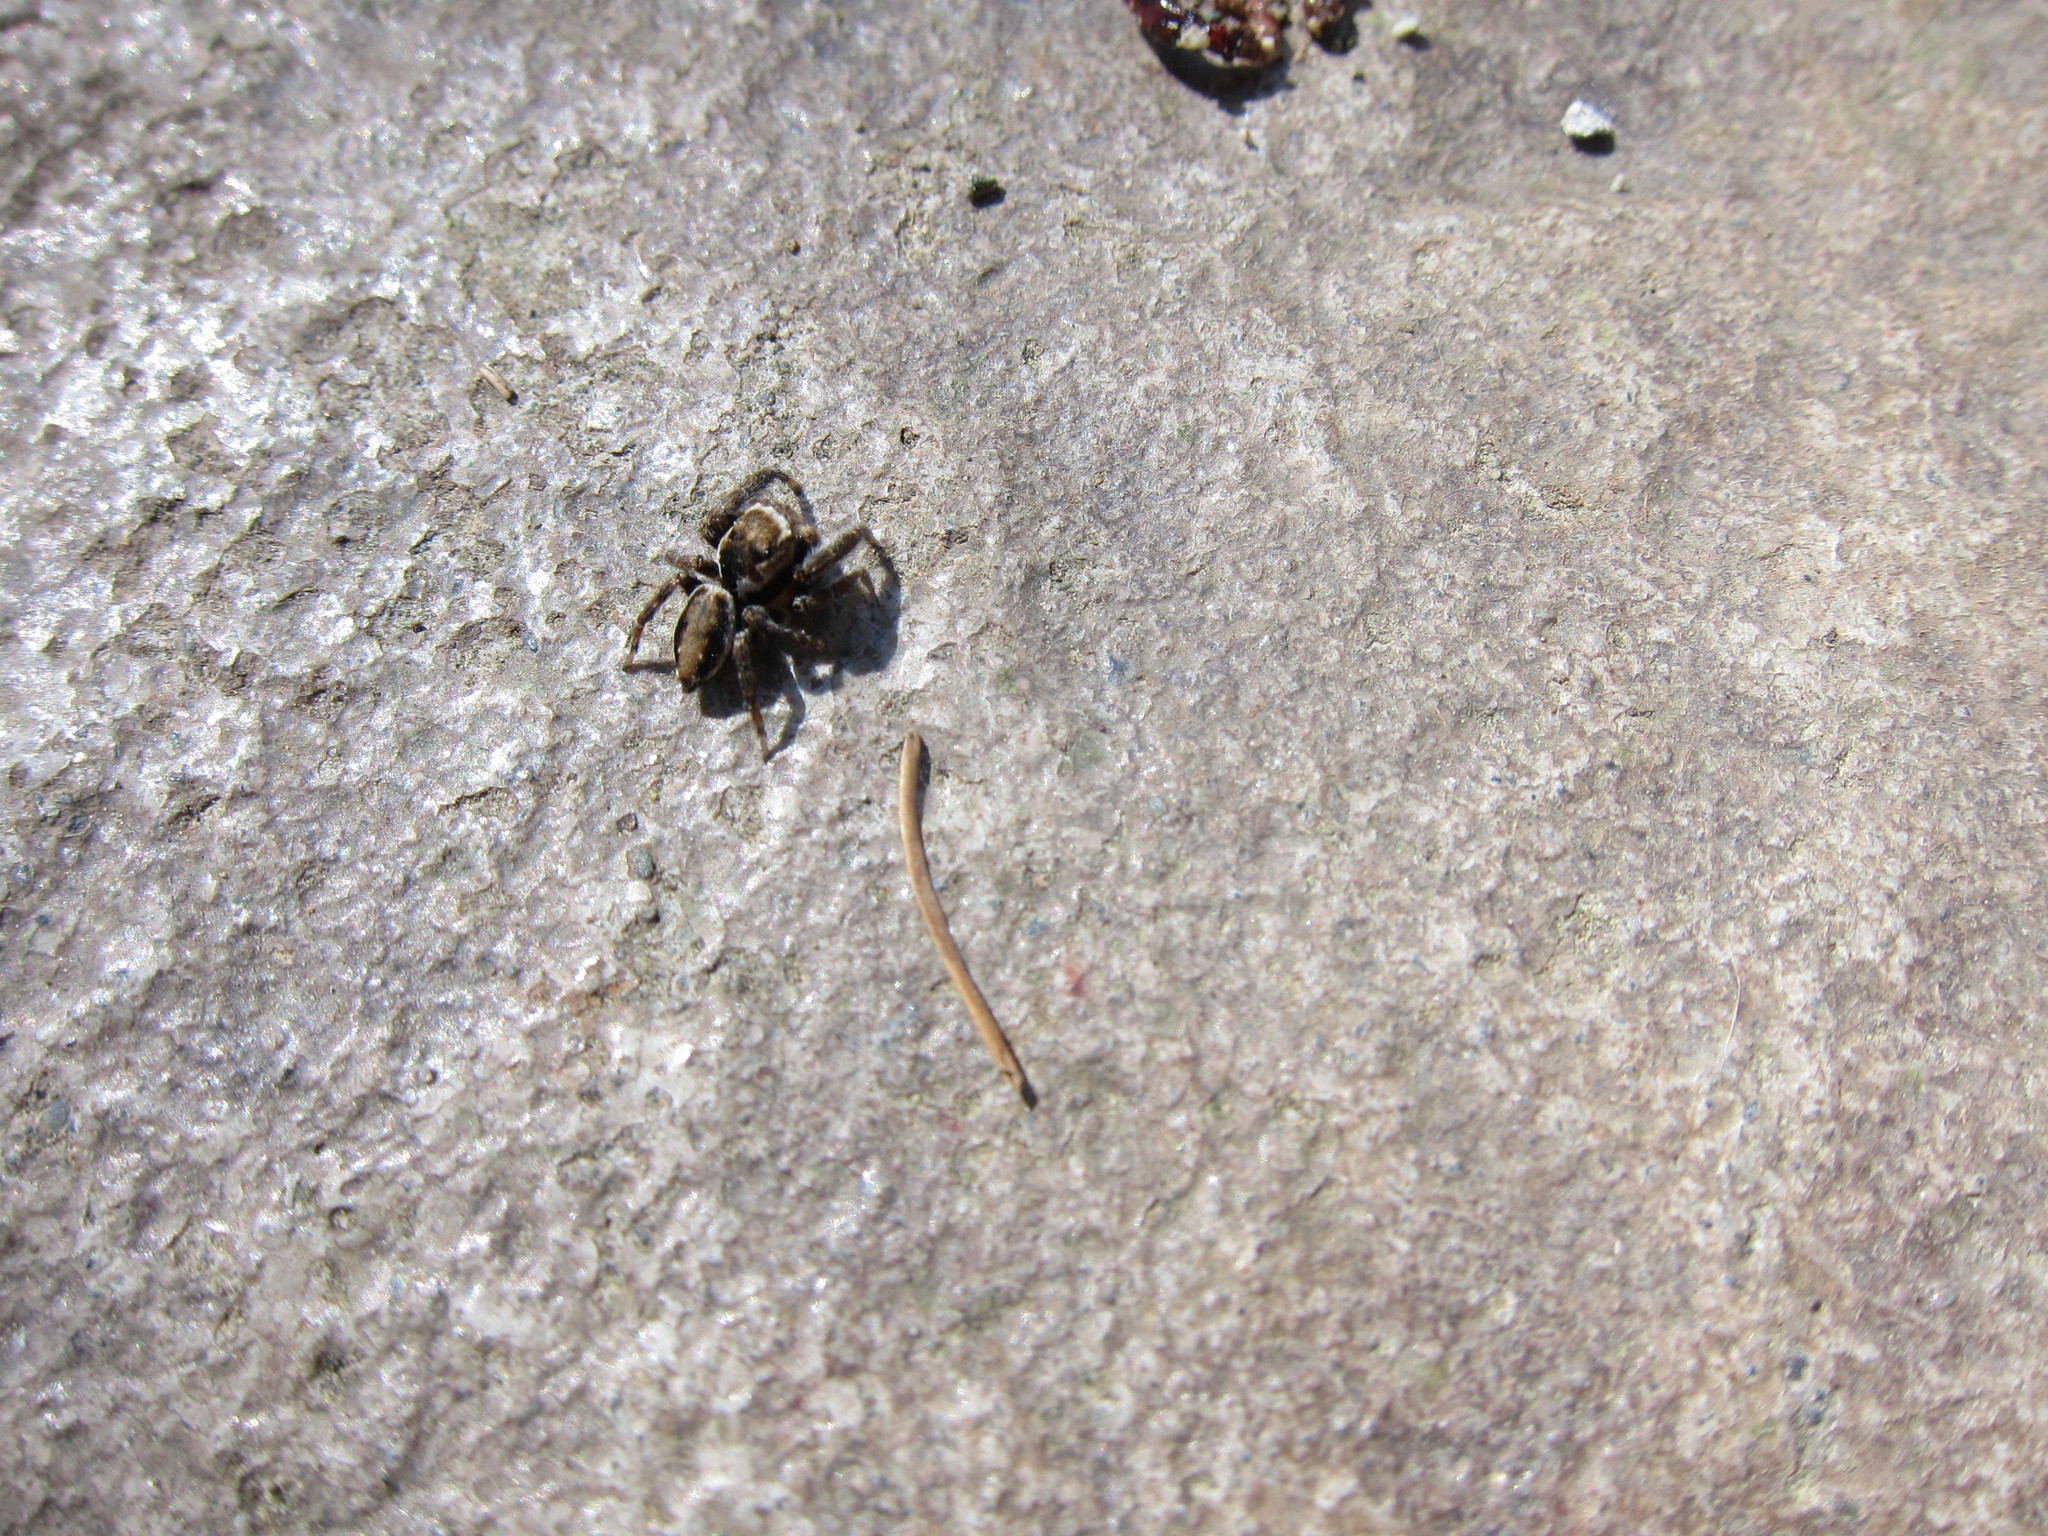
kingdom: Animalia
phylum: Arthropoda
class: Arachnida
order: Araneae
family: Salticidae
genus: Evarcha
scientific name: Evarcha proszynskii
